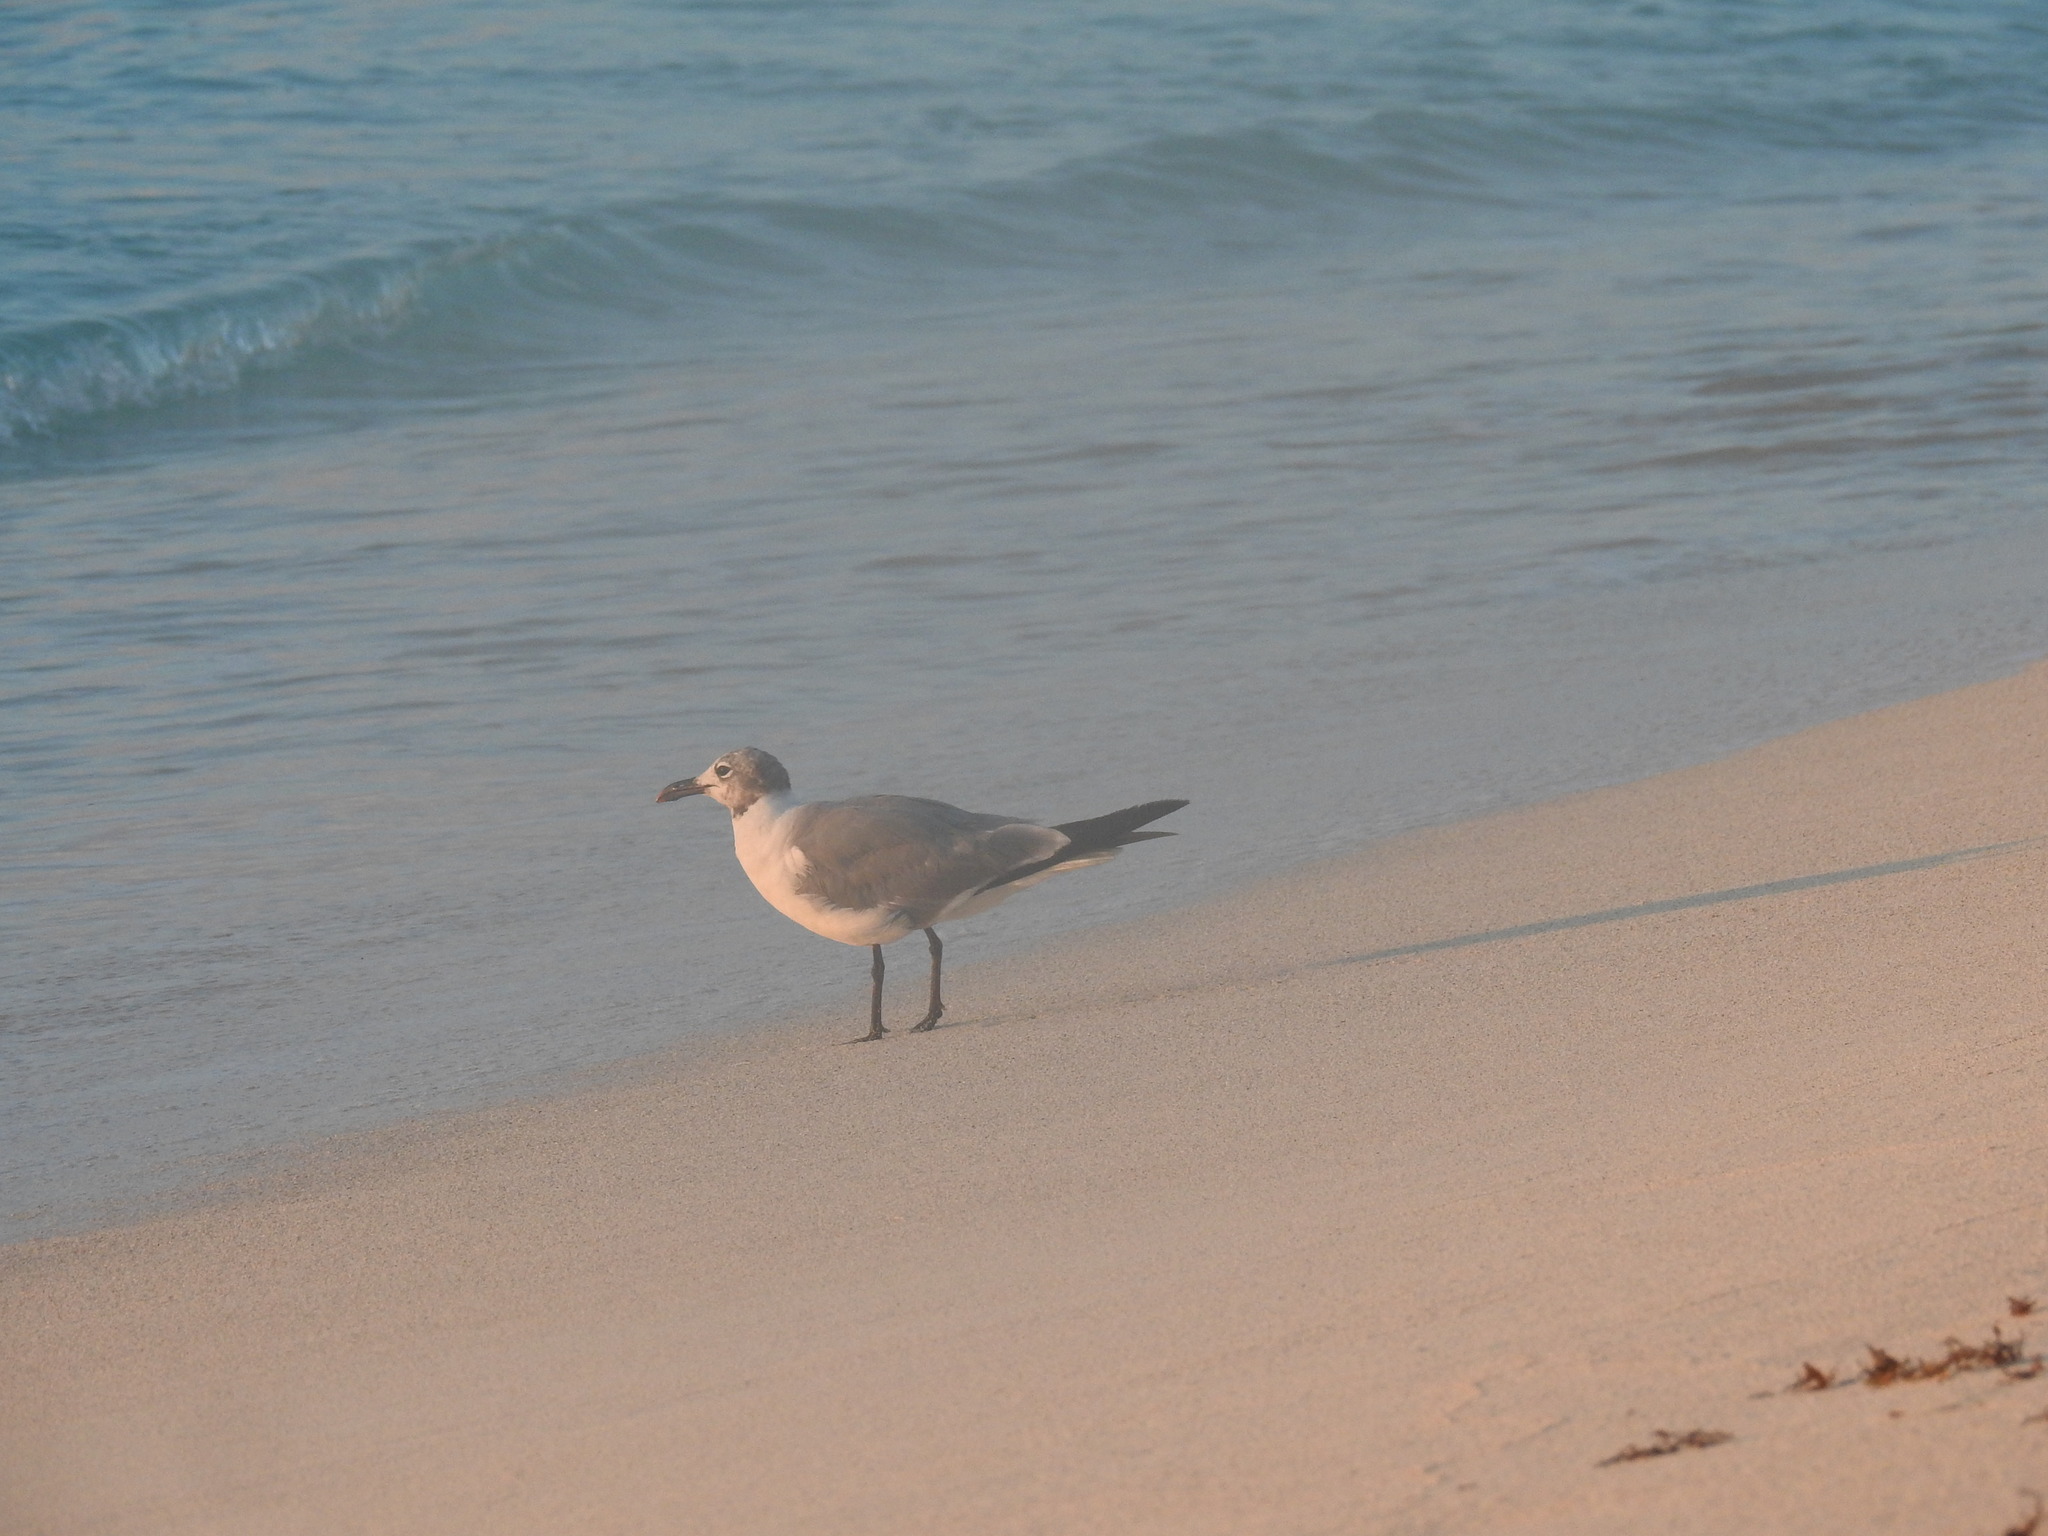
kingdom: Animalia
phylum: Chordata
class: Aves
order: Charadriiformes
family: Laridae
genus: Leucophaeus
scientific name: Leucophaeus atricilla
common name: Laughing gull
